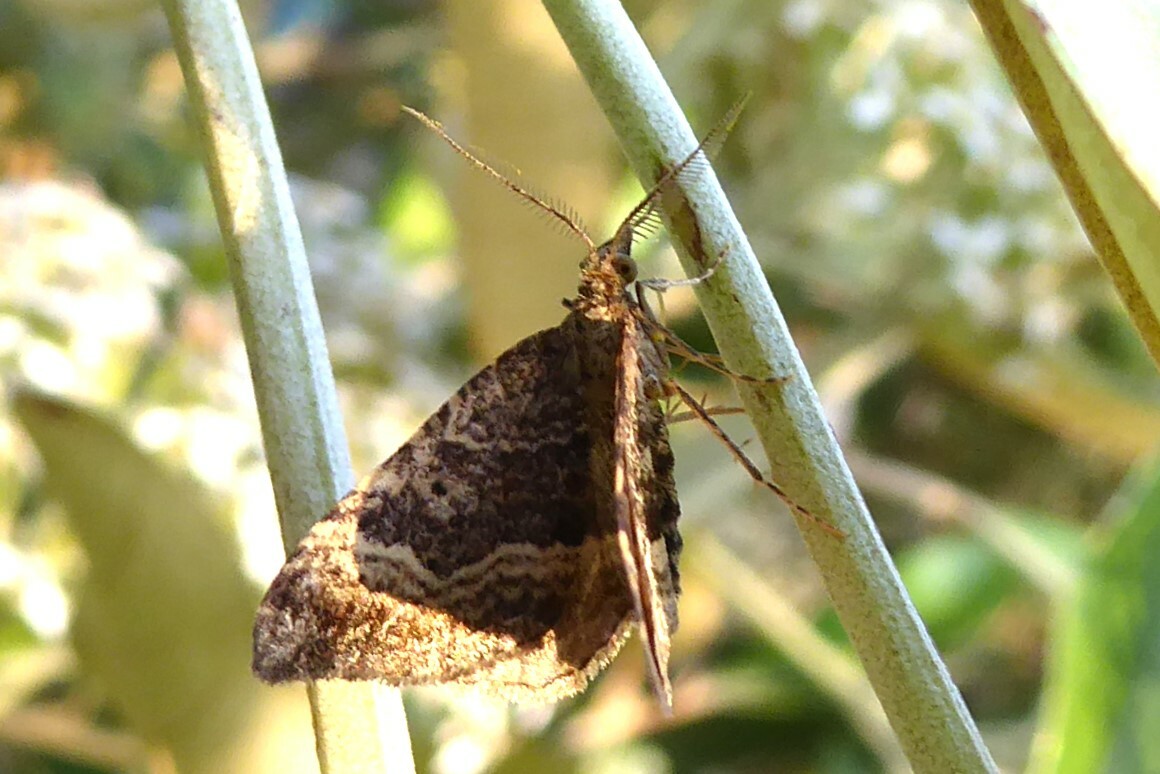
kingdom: Animalia
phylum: Arthropoda
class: Insecta
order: Lepidoptera
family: Geometridae
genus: Homodotis
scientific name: Homodotis megaspilata
